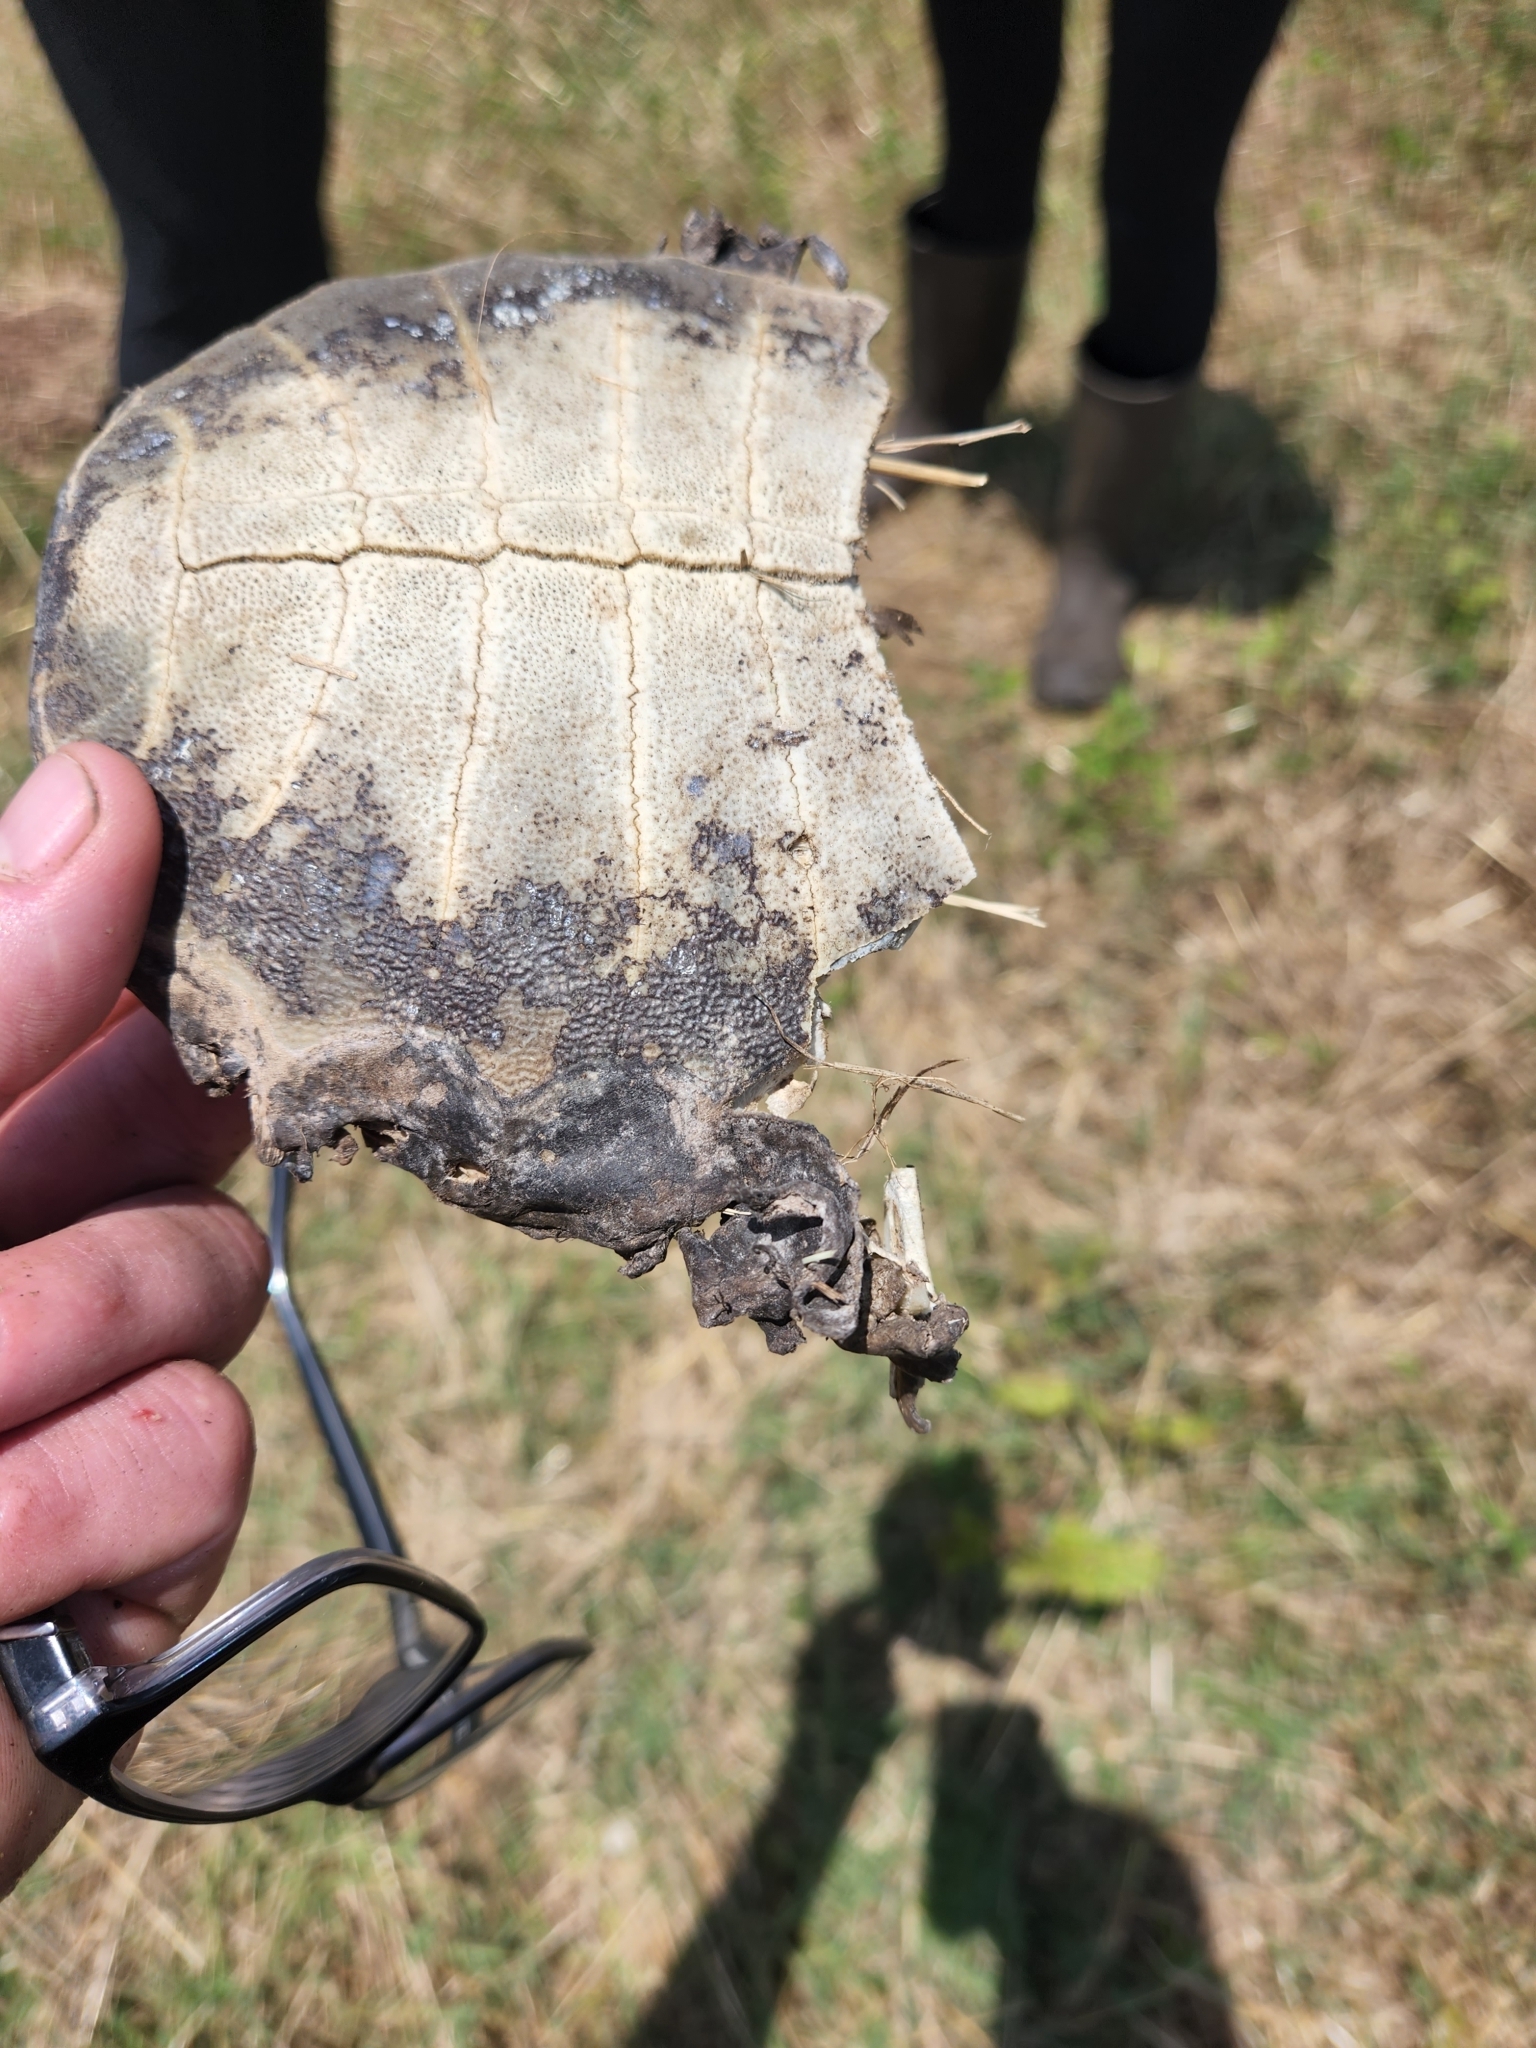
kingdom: Animalia
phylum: Chordata
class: Testudines
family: Trionychidae
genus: Apalone
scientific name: Apalone spinifera
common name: Spiny softshell turtle
